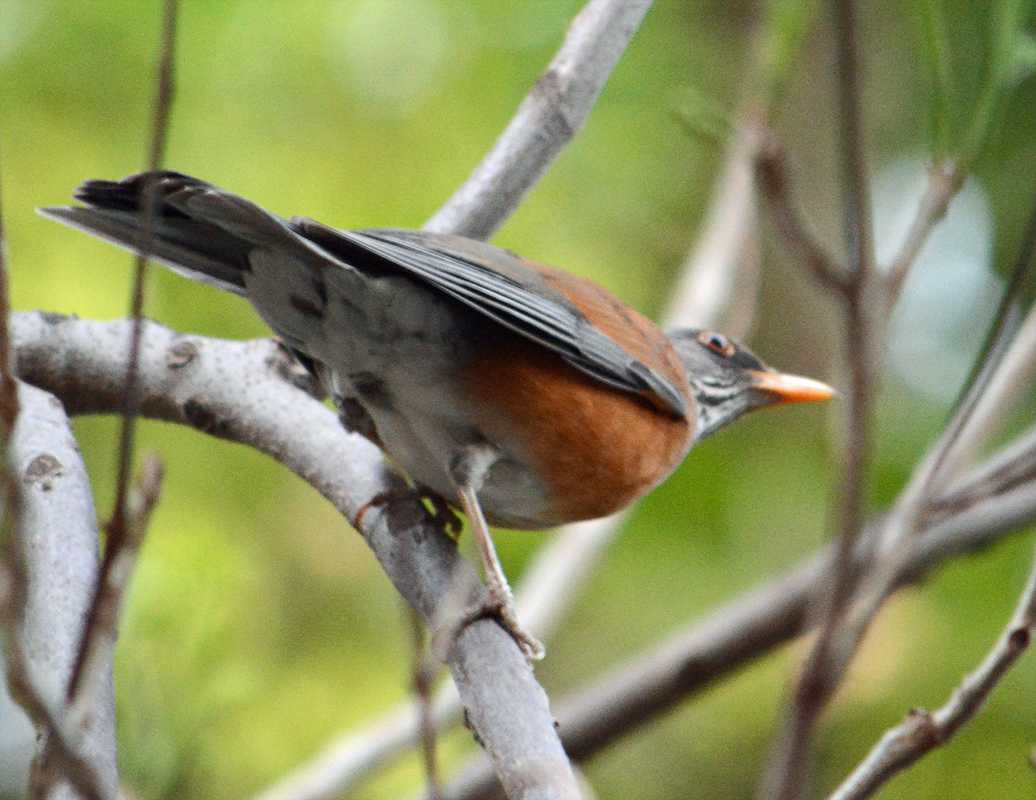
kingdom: Animalia
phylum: Chordata
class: Aves
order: Passeriformes
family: Turdidae
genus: Turdus
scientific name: Turdus rufopalliatus
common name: Rufous-backed robin
